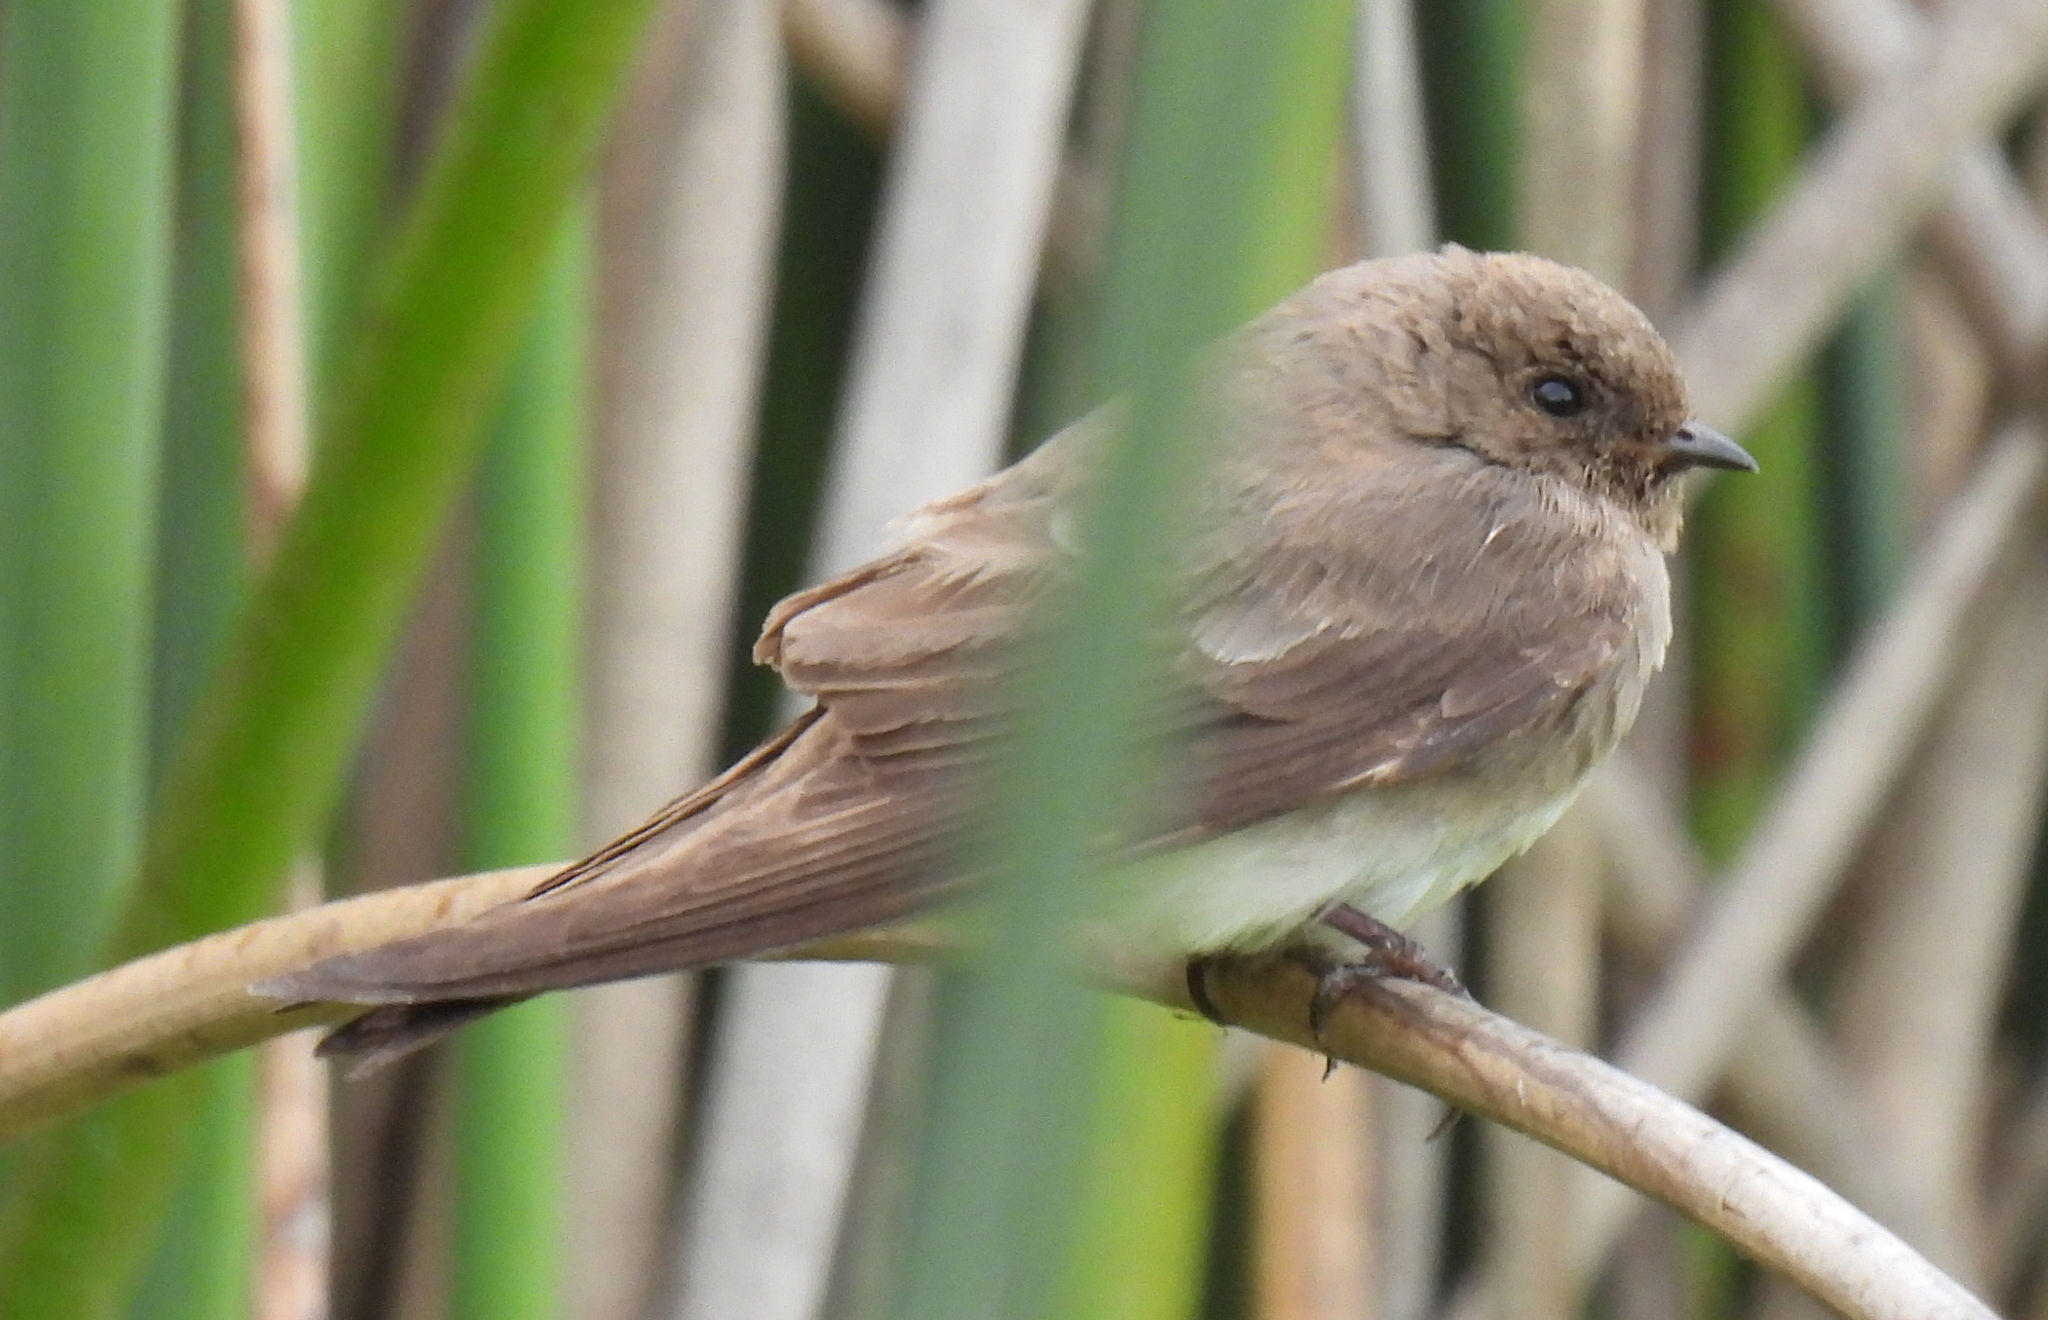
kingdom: Animalia
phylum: Chordata
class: Aves
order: Passeriformes
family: Hirundinidae
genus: Riparia
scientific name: Riparia paludicola
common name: Brown-throated martin
